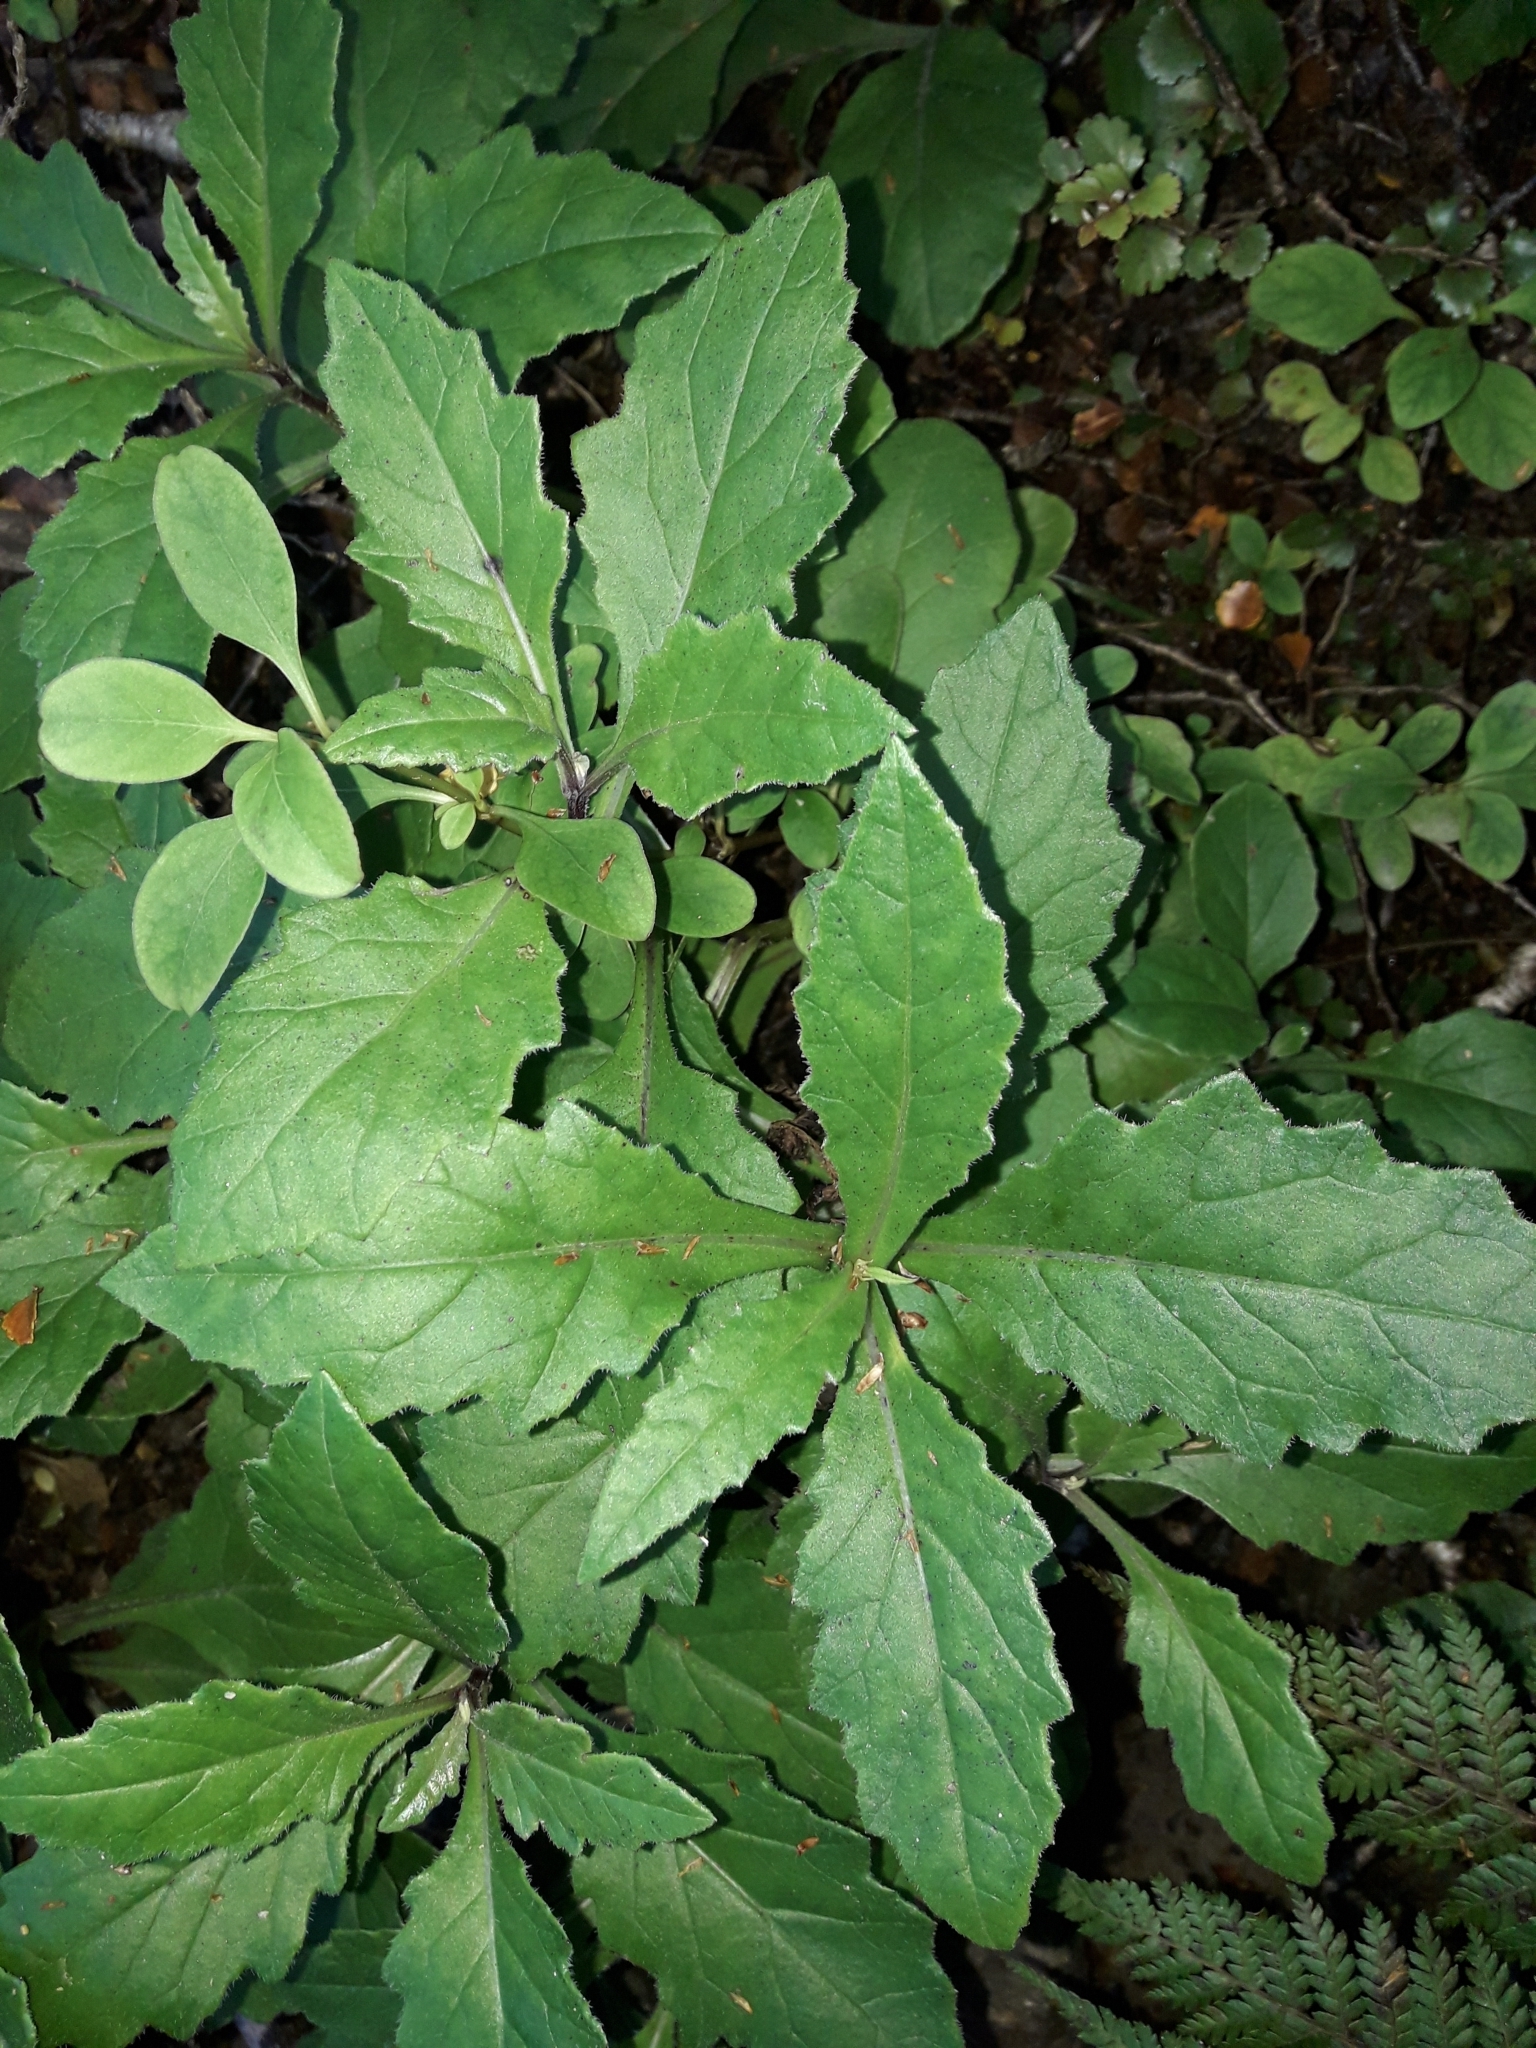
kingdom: Plantae
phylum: Tracheophyta
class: Magnoliopsida
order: Asterales
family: Asteraceae
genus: Senecio
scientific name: Senecio rufiglandulosus
